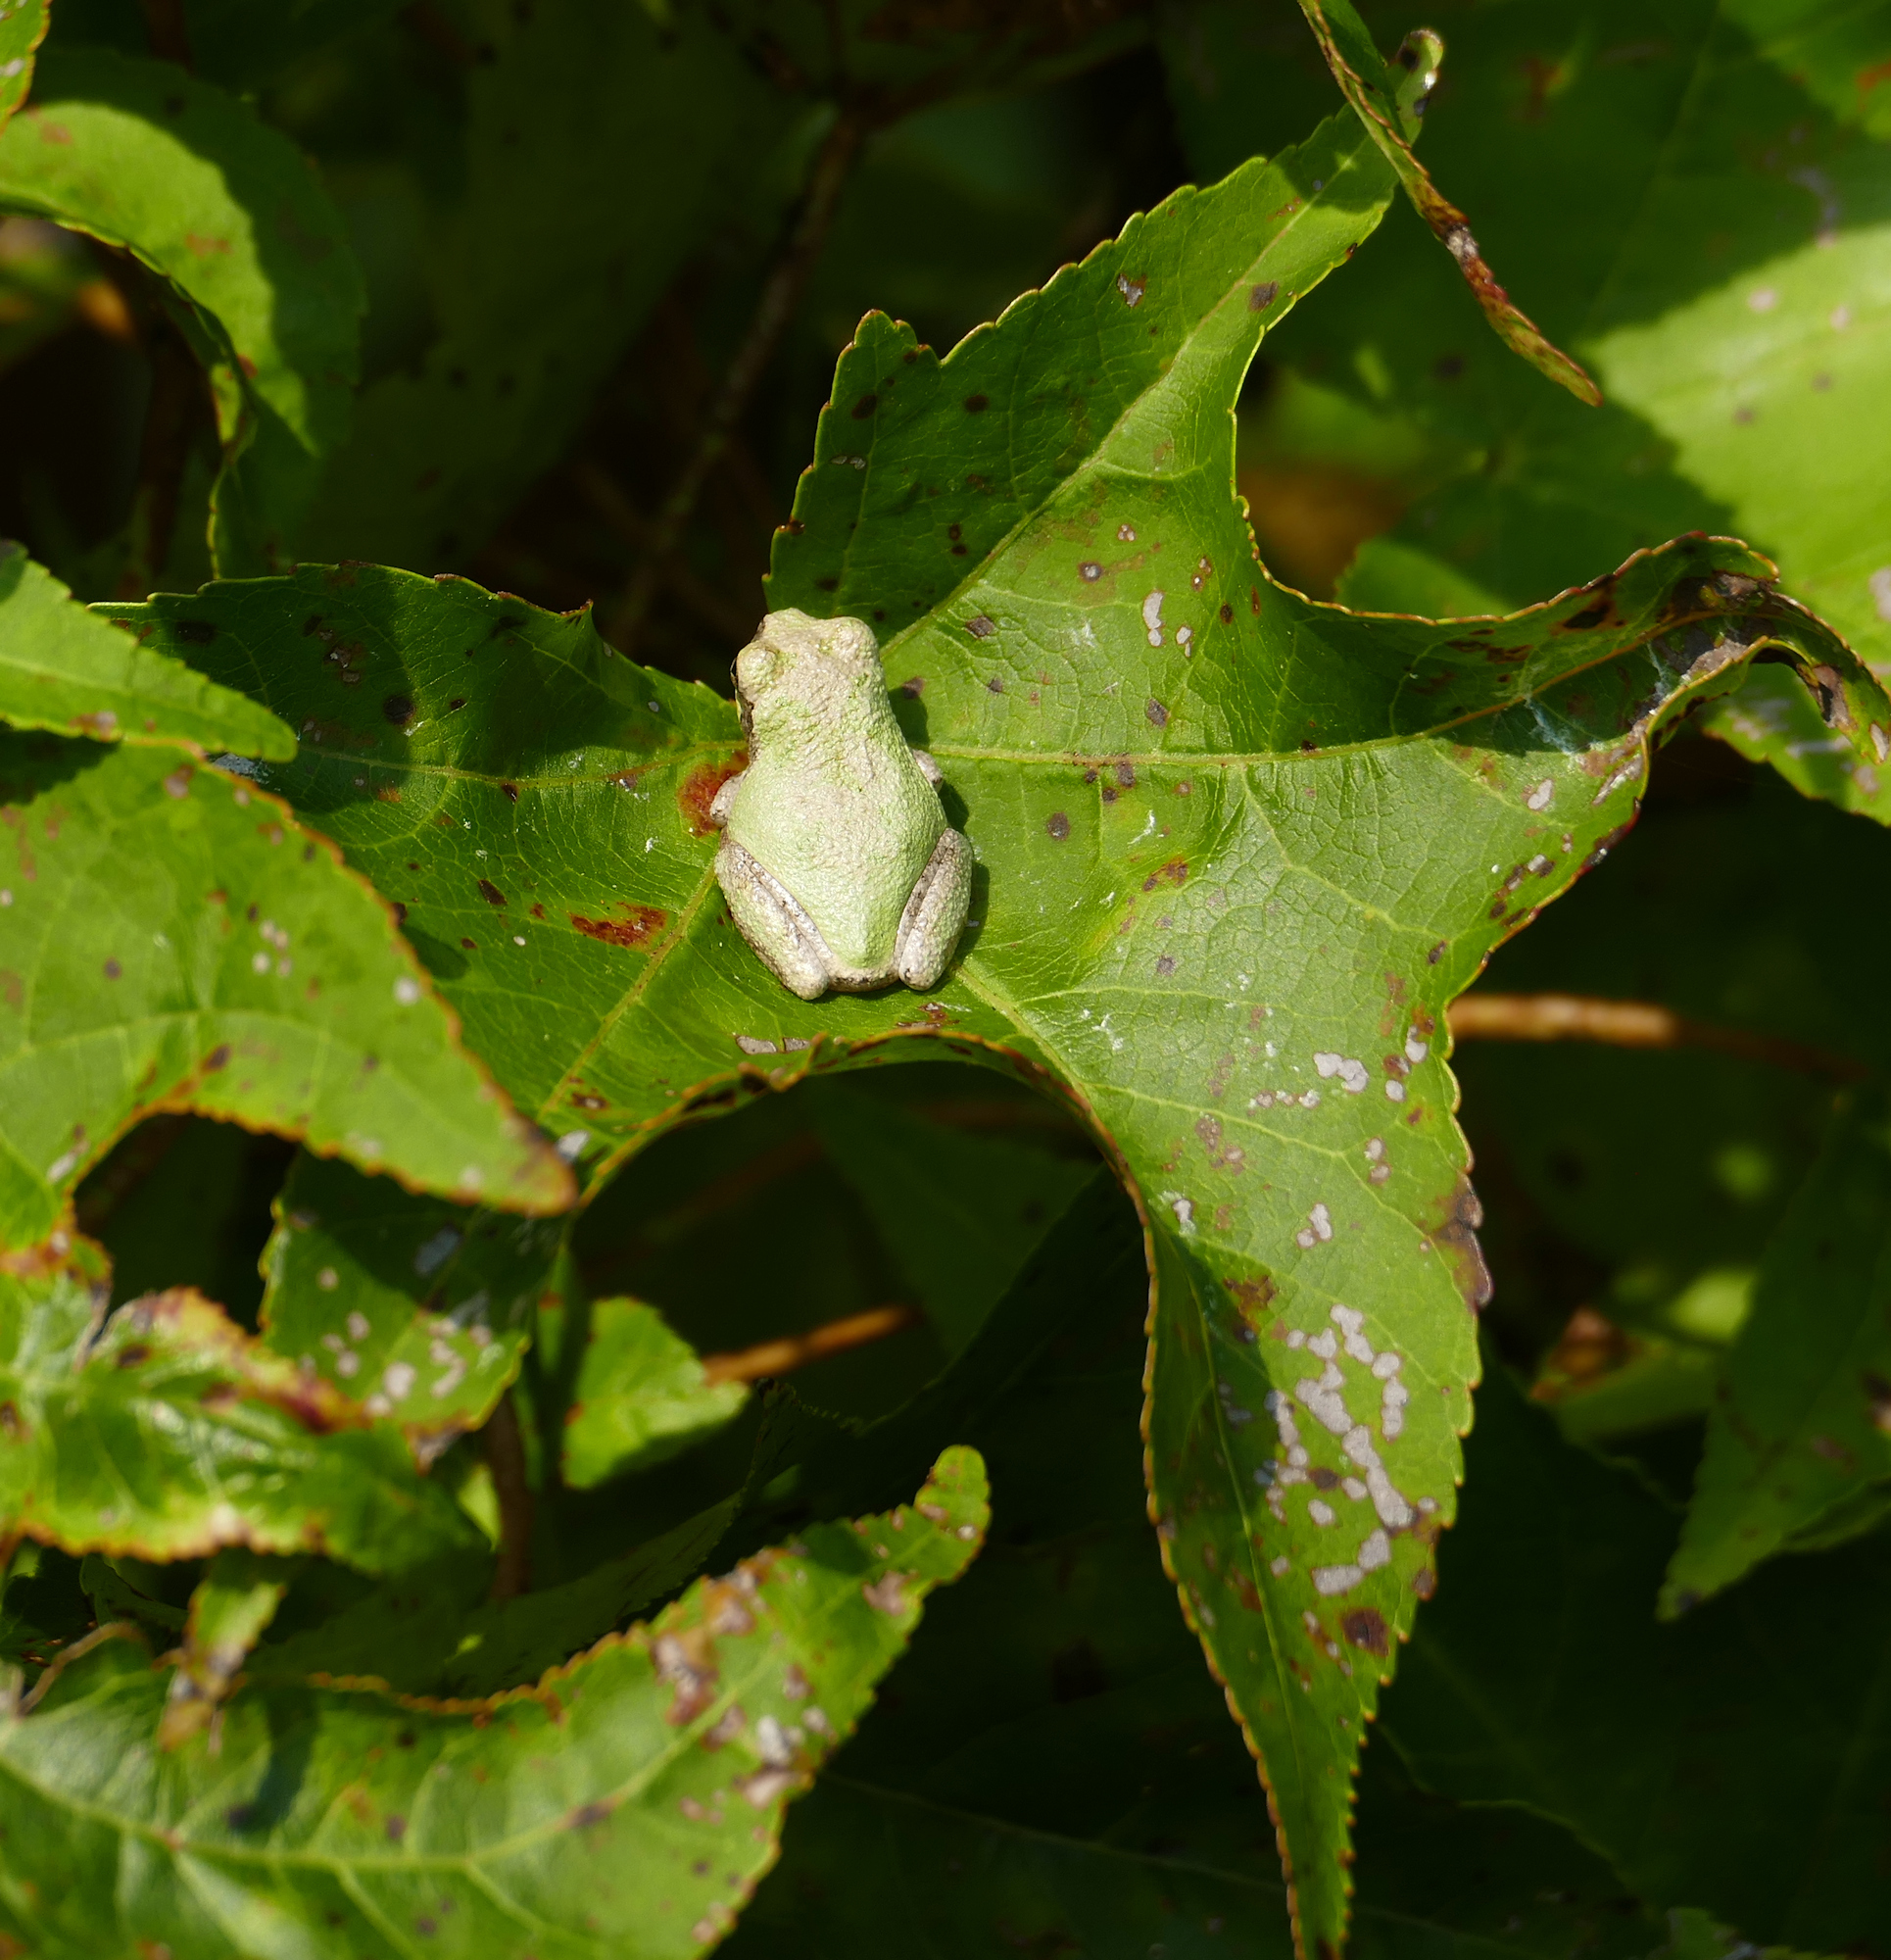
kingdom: Animalia
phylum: Chordata
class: Amphibia
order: Anura
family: Hylidae
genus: Dryophytes
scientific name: Dryophytes chrysoscelis
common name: Cope's gray treefrog
